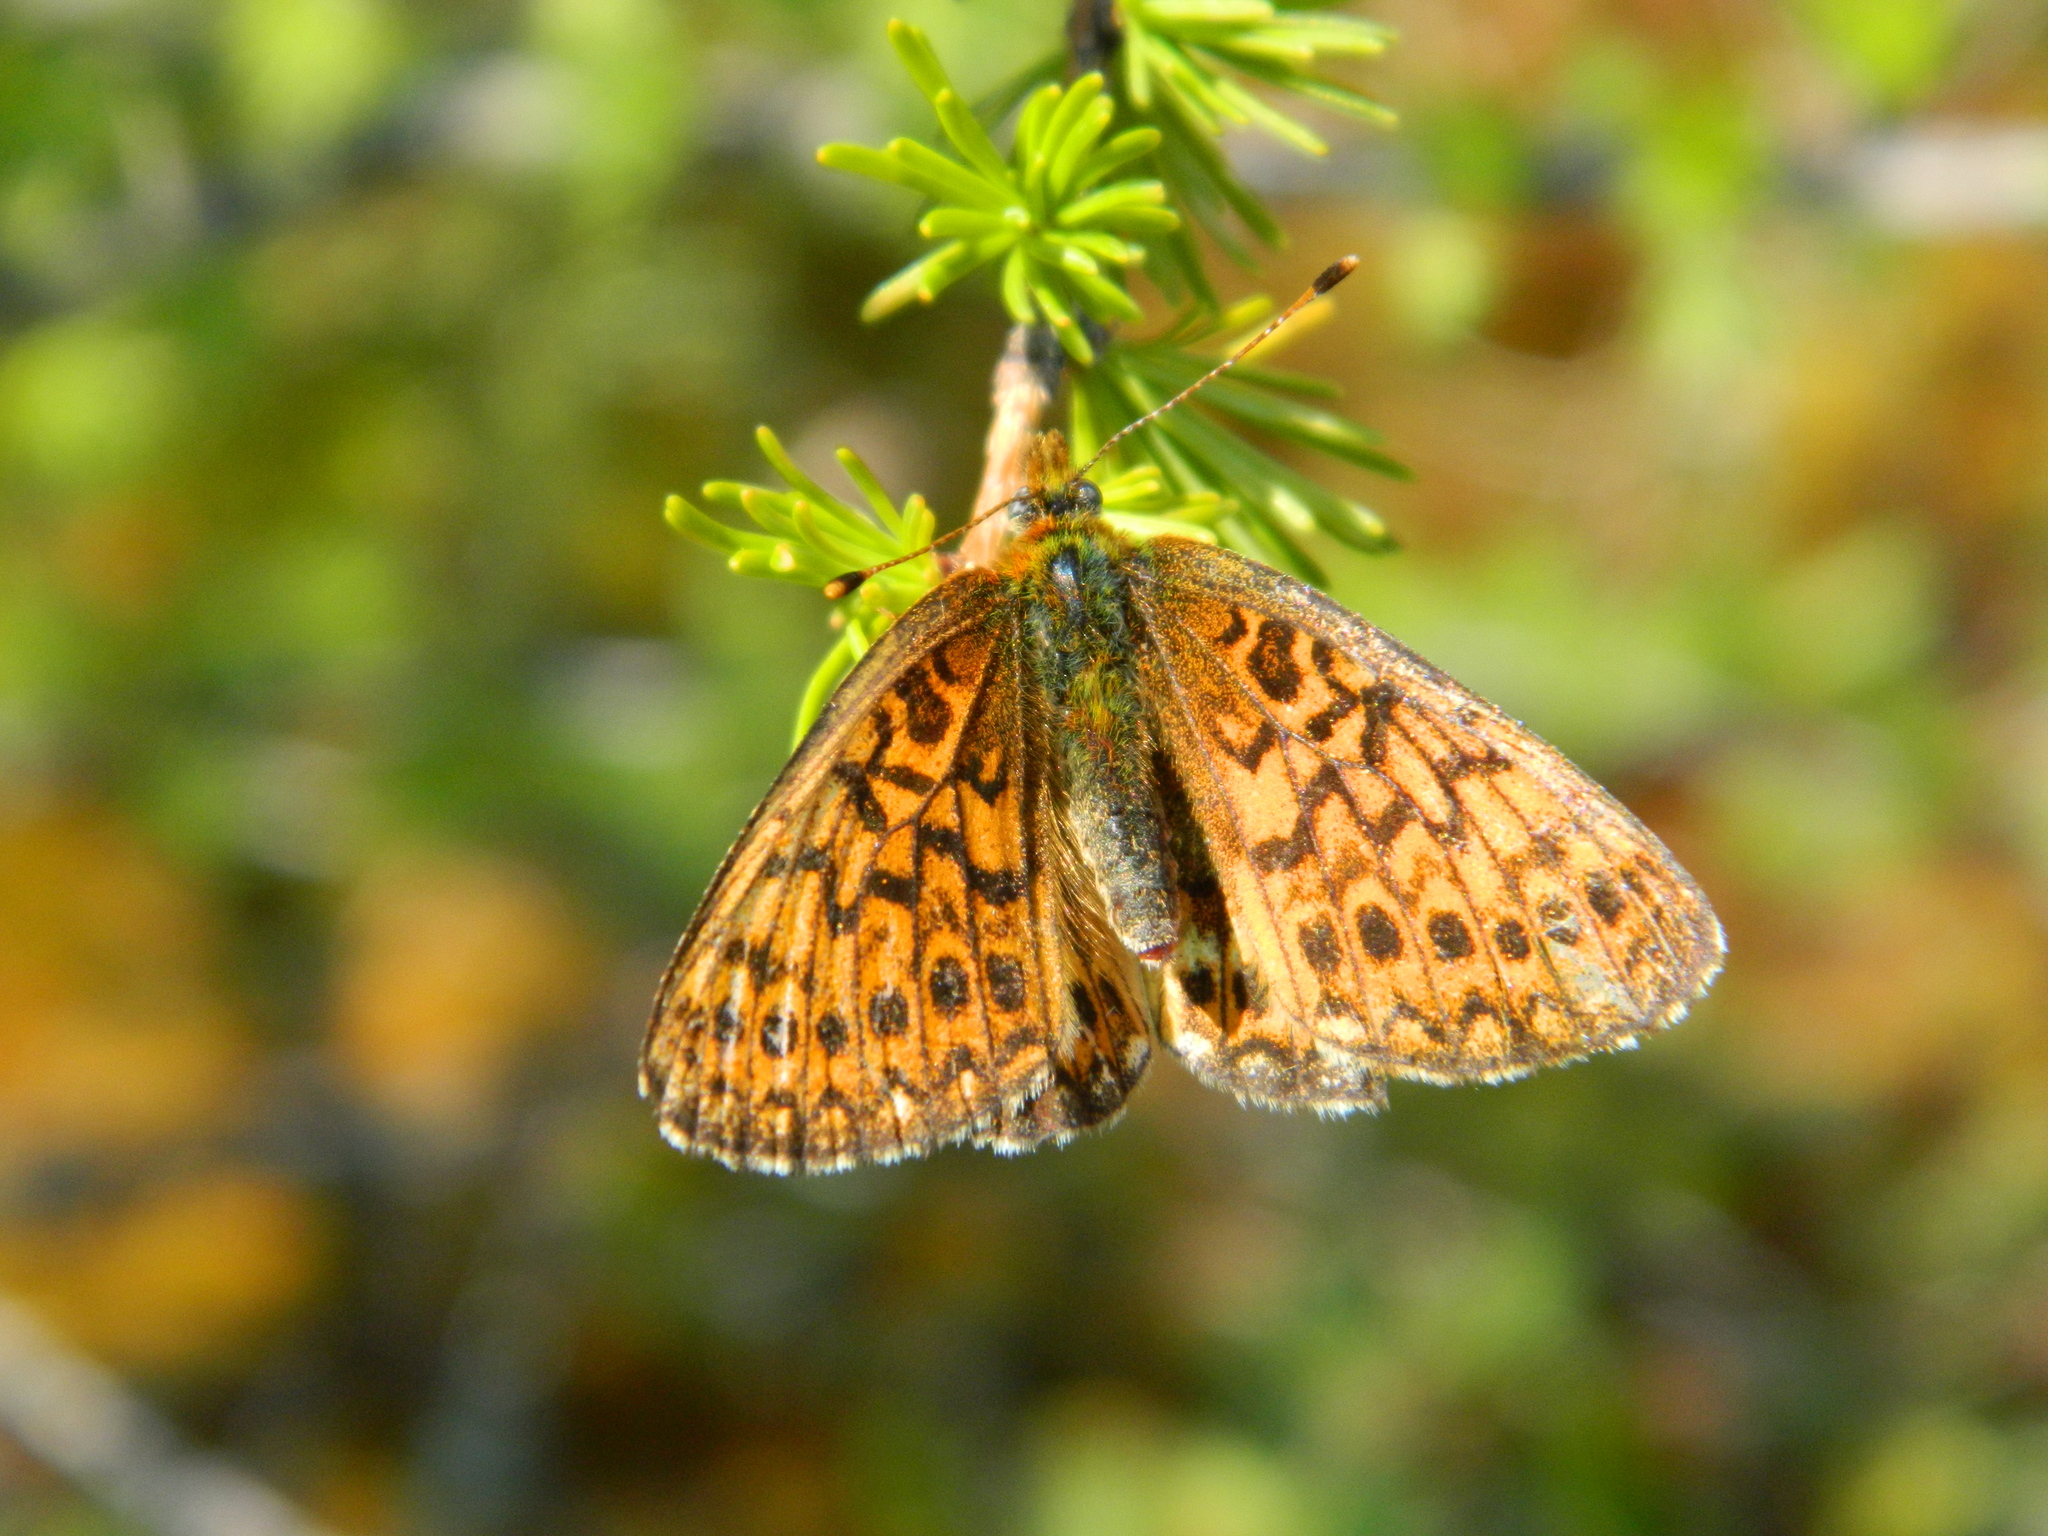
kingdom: Animalia
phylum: Arthropoda
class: Insecta
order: Lepidoptera
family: Nymphalidae
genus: Boloria
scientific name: Boloria eunomia
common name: Bog fritillary
